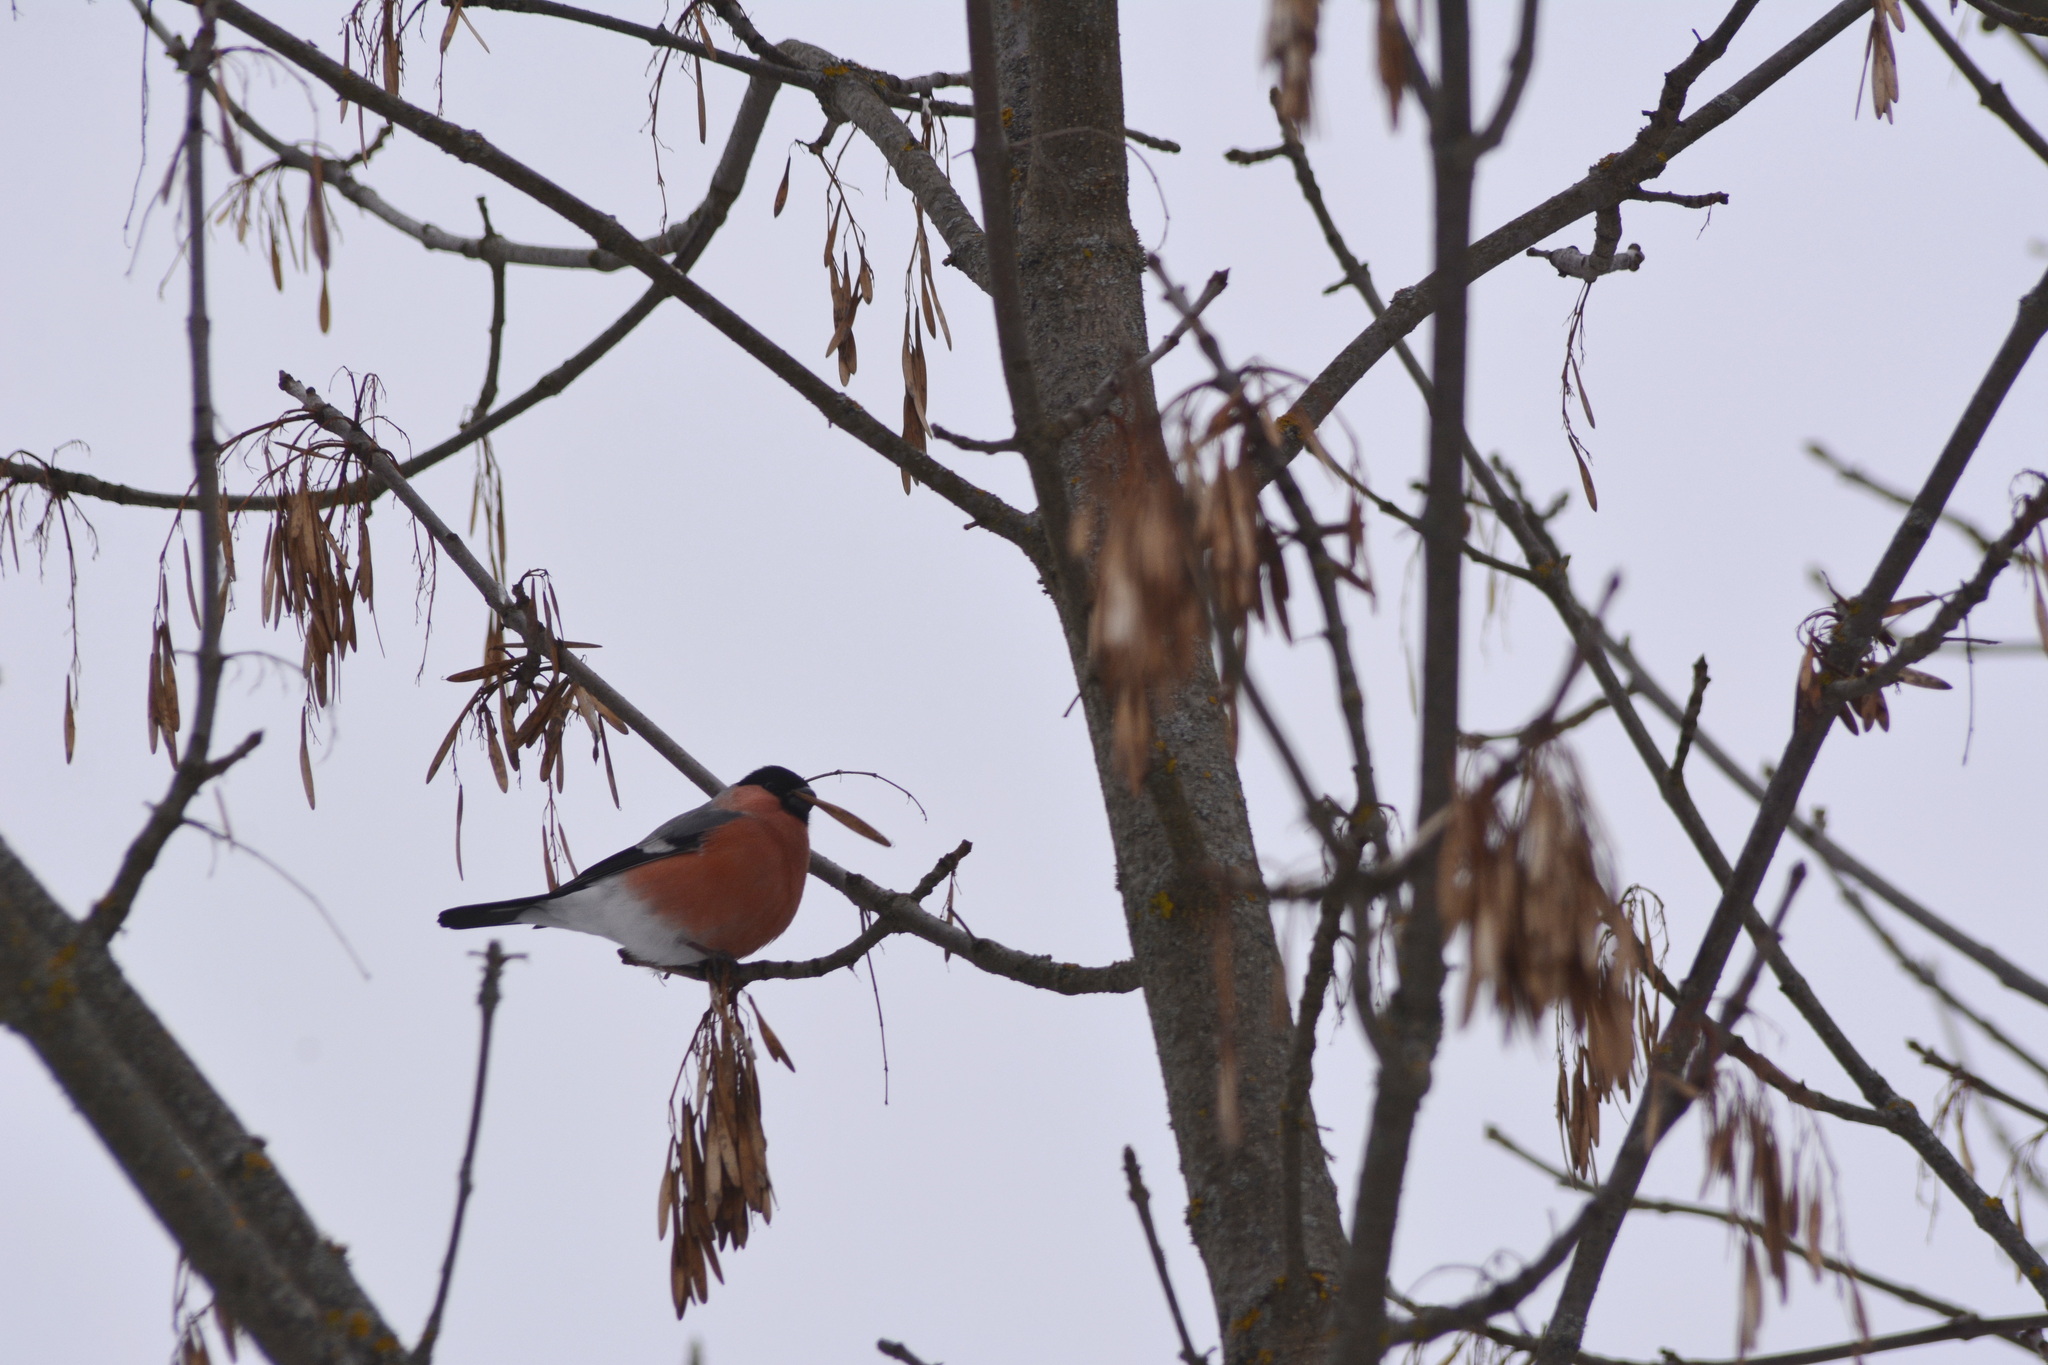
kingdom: Animalia
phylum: Chordata
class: Aves
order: Passeriformes
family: Fringillidae
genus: Pyrrhula
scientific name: Pyrrhula pyrrhula
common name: Eurasian bullfinch
